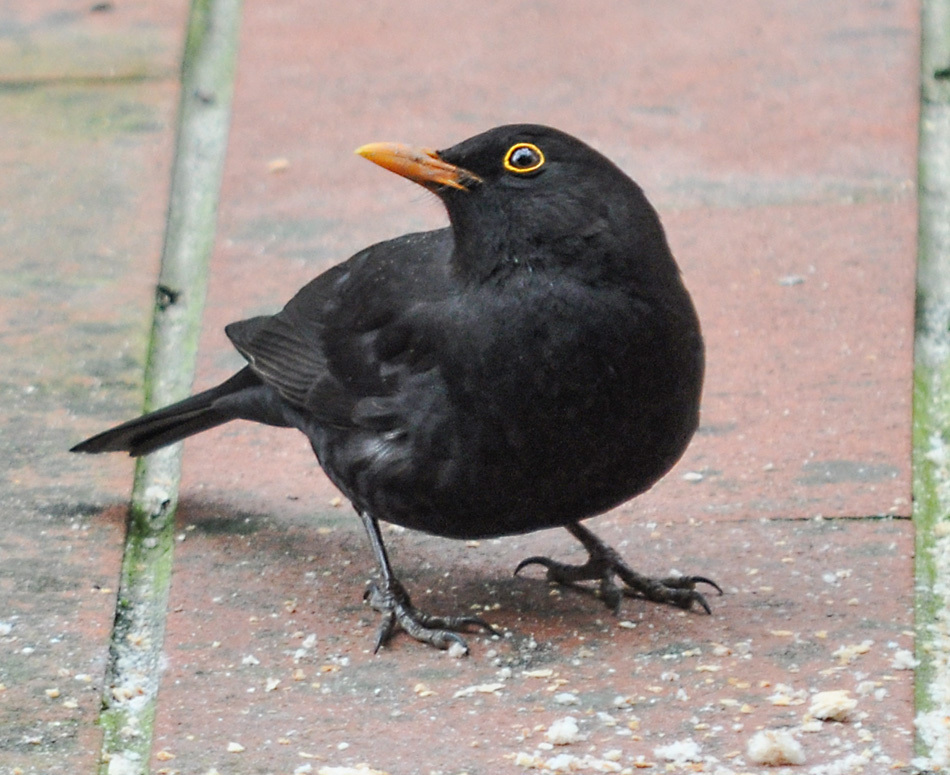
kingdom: Animalia
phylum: Chordata
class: Aves
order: Passeriformes
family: Turdidae
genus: Turdus
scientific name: Turdus merula
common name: Common blackbird
